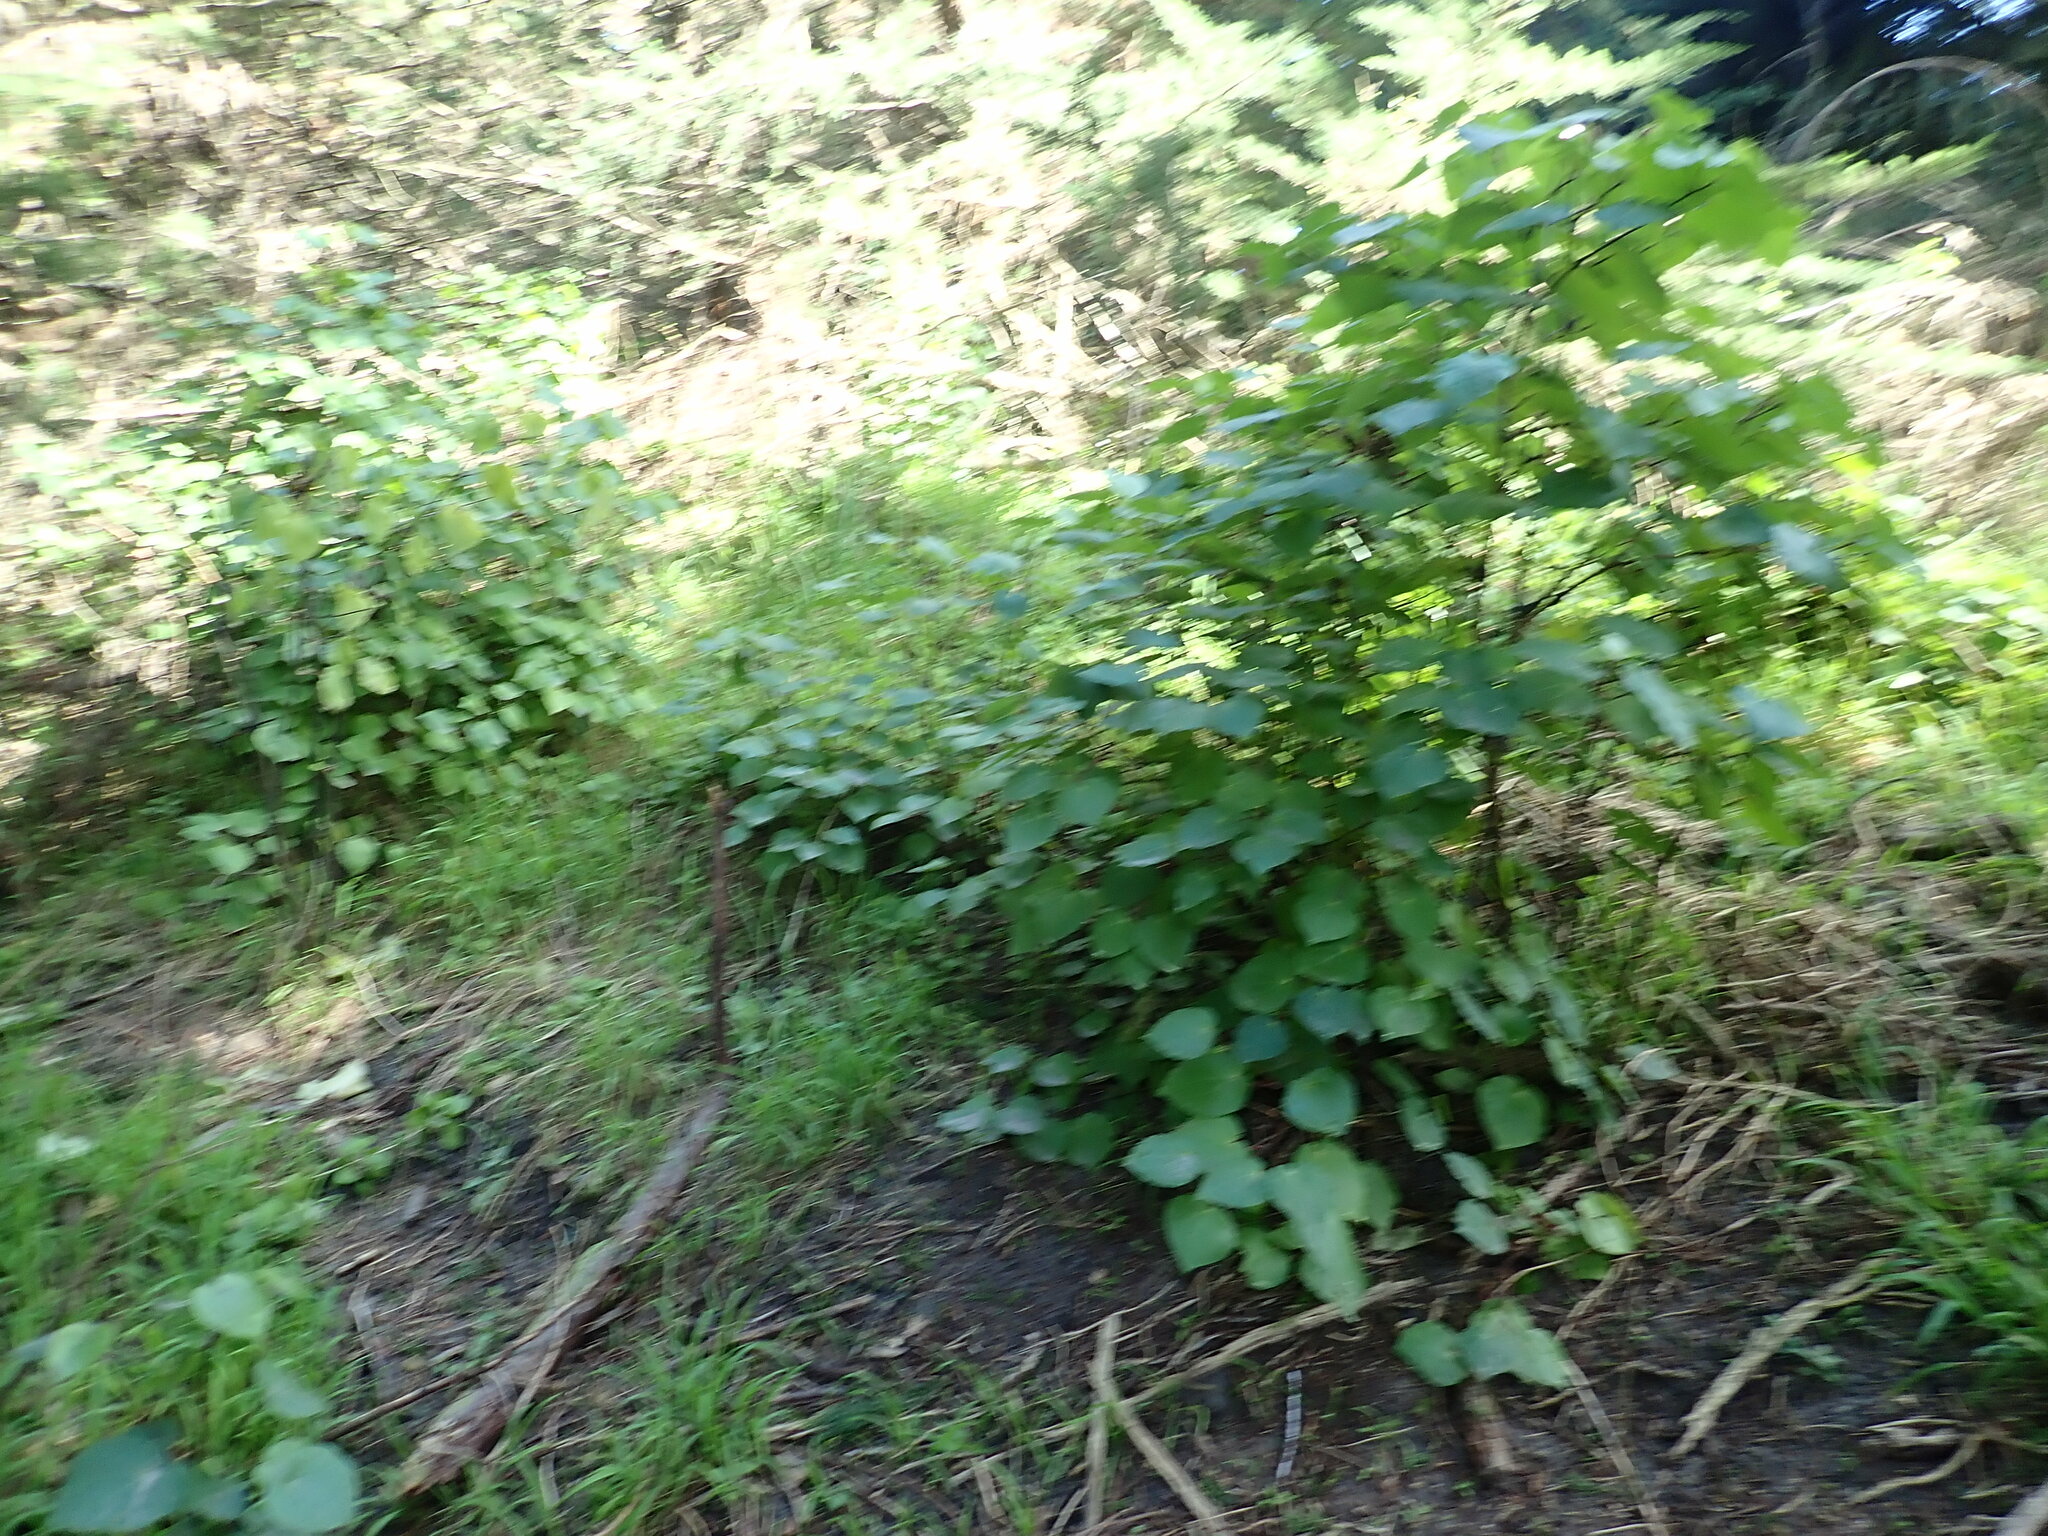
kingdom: Plantae
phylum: Tracheophyta
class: Magnoliopsida
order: Piperales
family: Piperaceae
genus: Macropiper
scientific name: Macropiper excelsum
